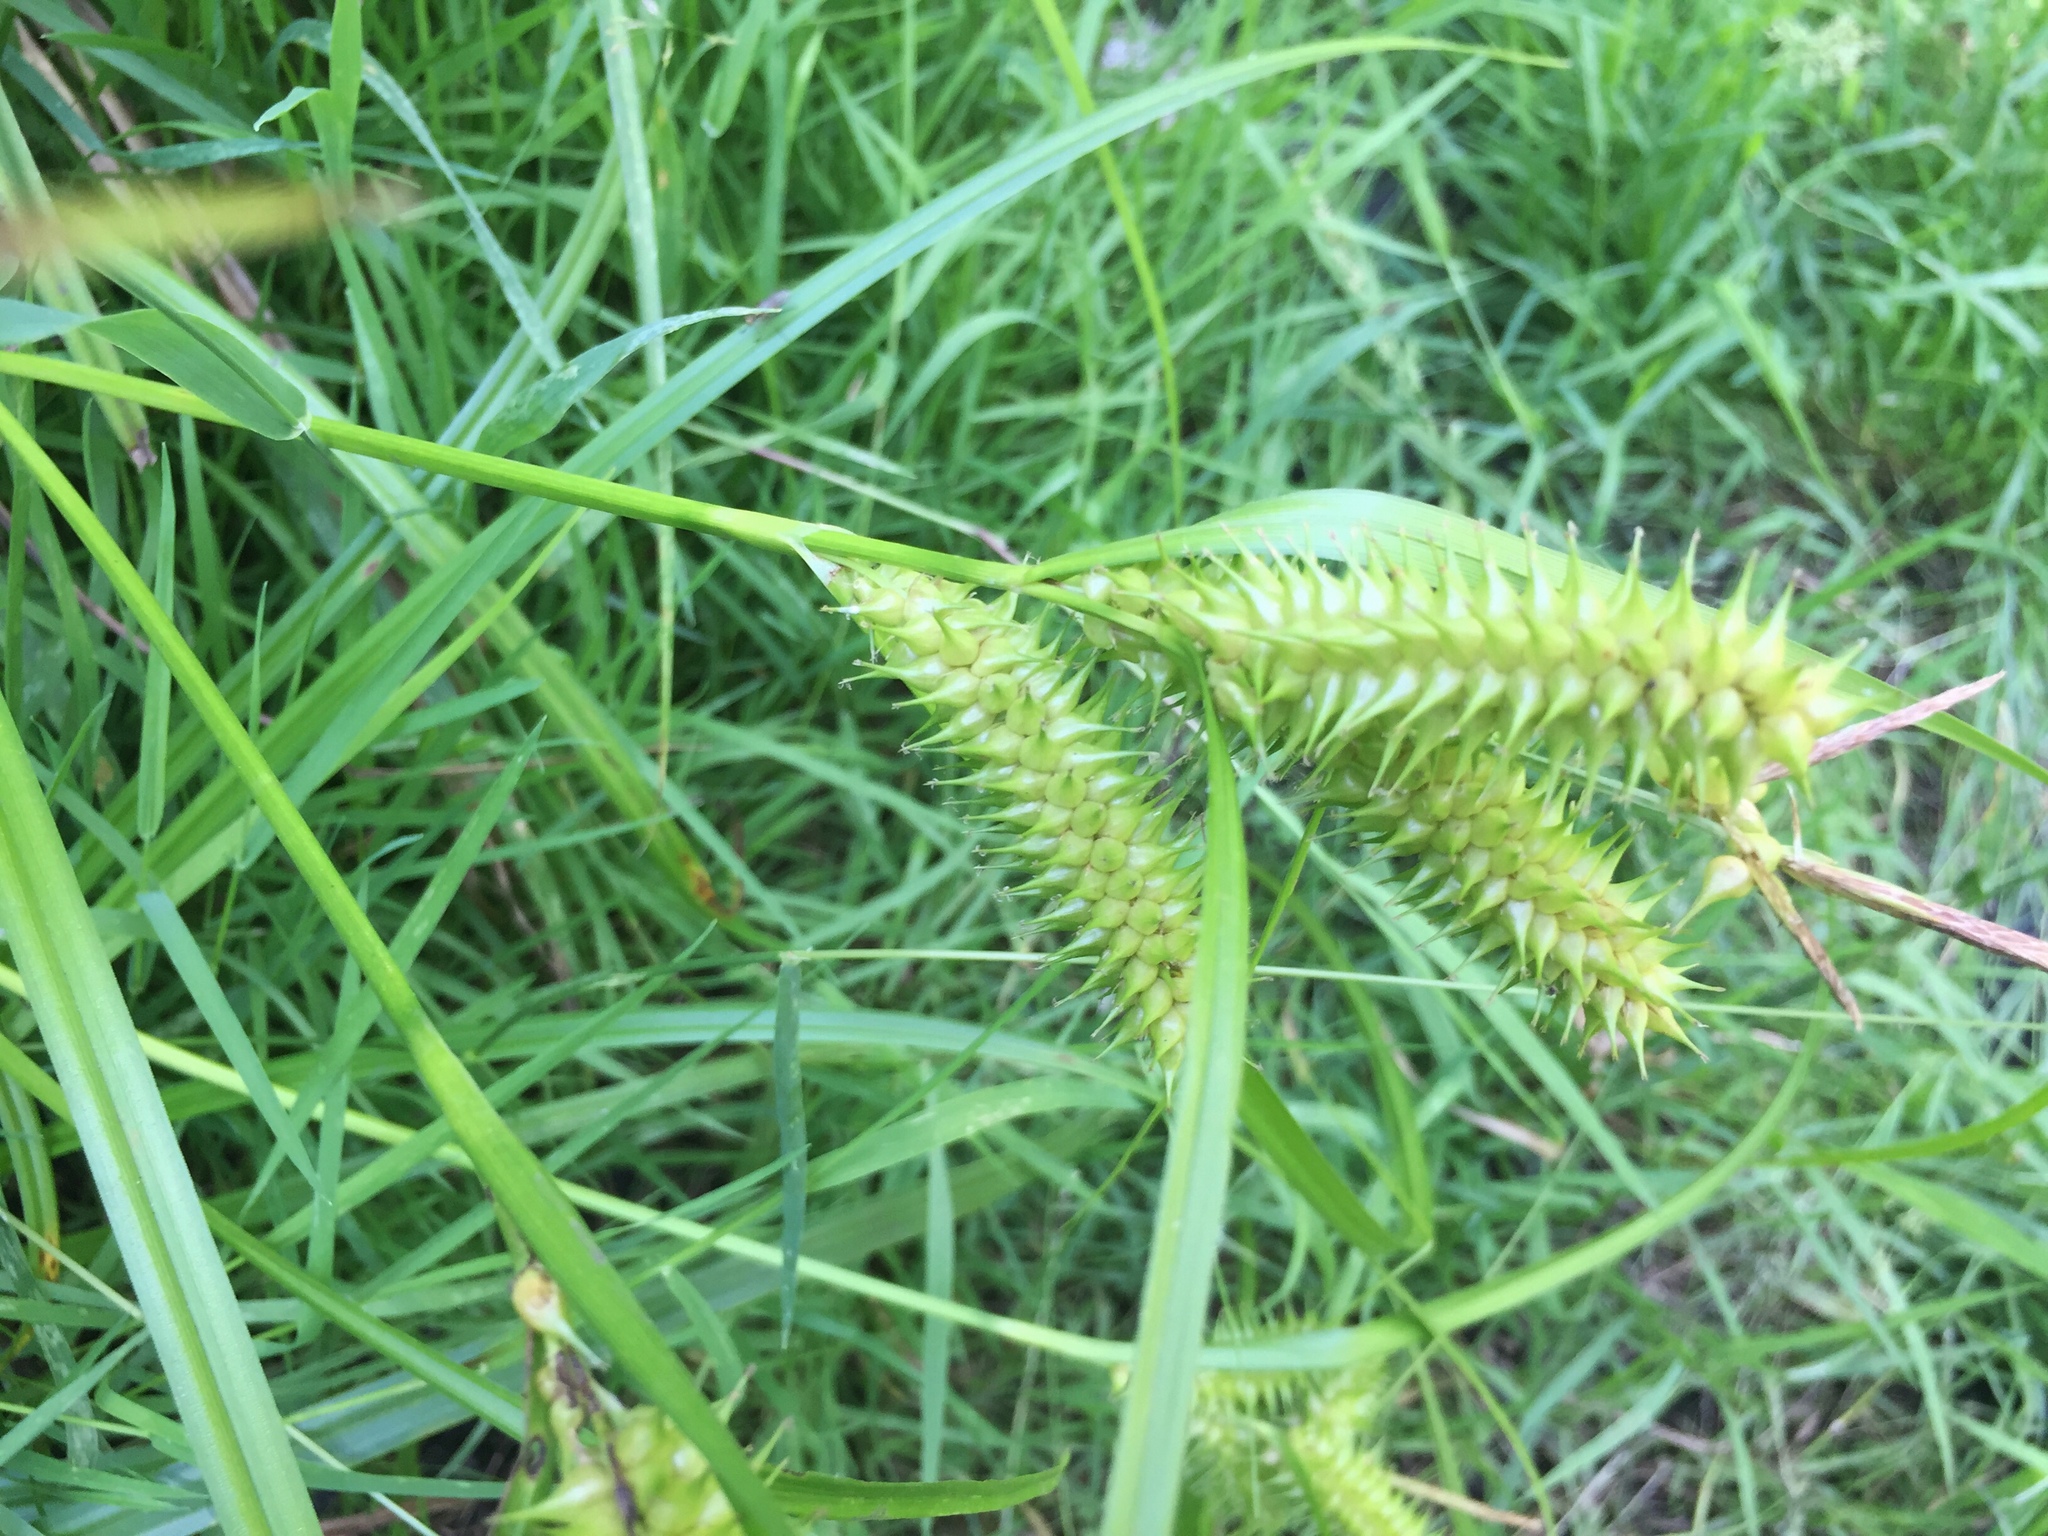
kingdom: Plantae
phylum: Tracheophyta
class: Liliopsida
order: Poales
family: Cyperaceae
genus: Carex
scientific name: Carex retrorsa
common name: Knot-sheath sedge
